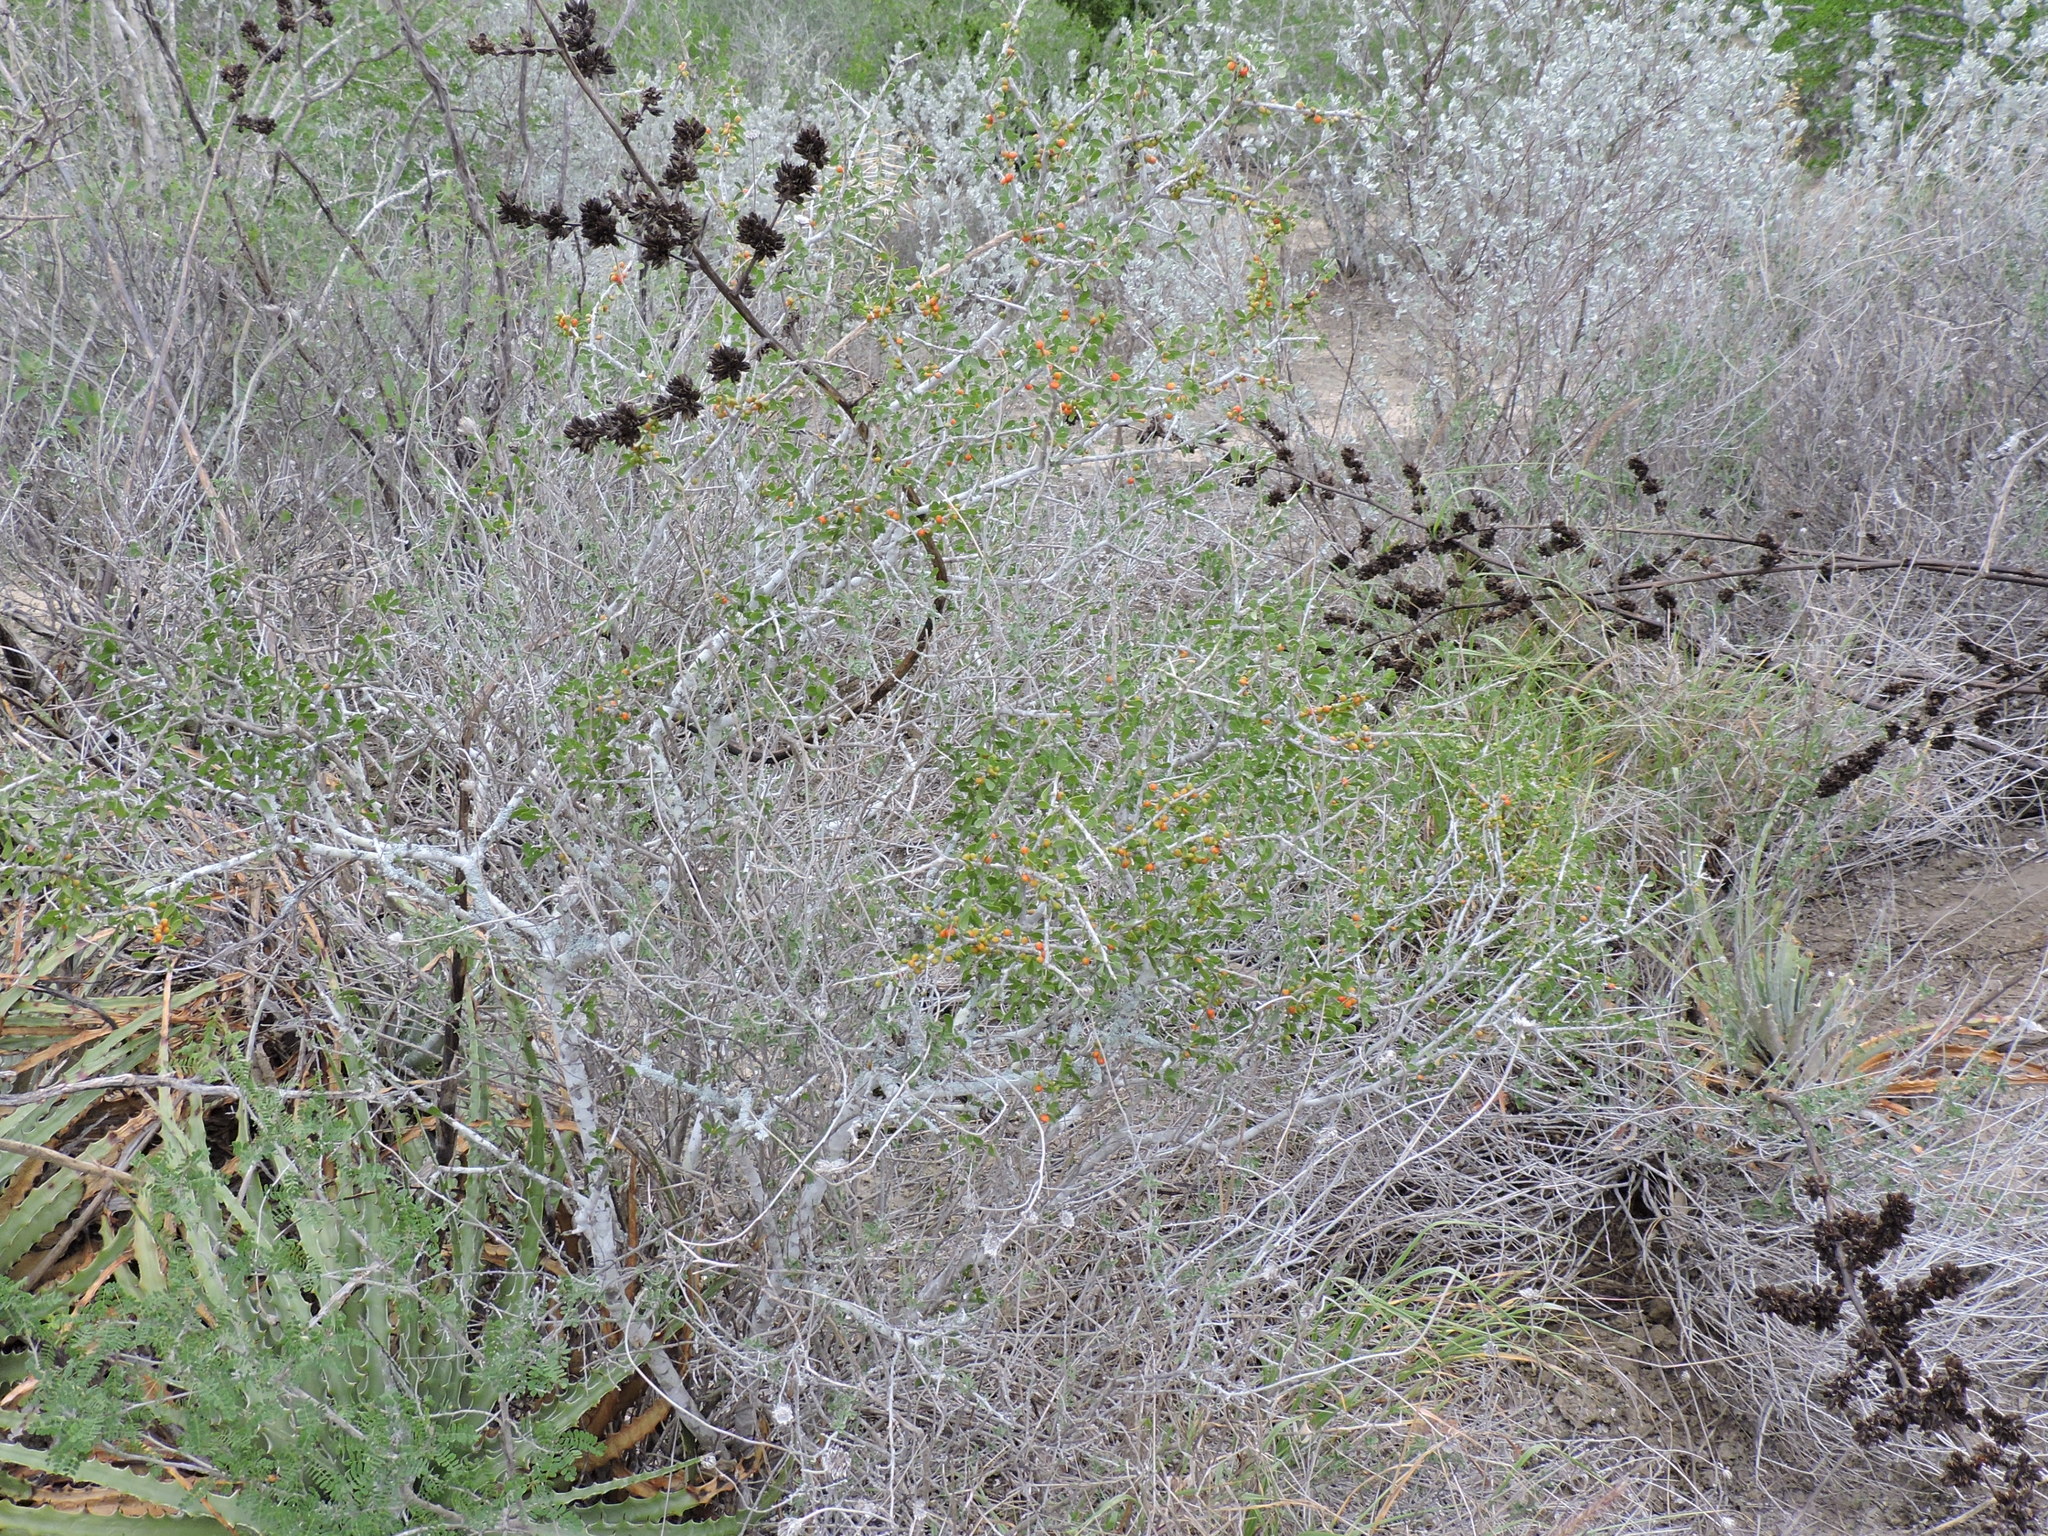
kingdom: Plantae
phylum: Tracheophyta
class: Magnoliopsida
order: Celastrales
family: Celastraceae
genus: Schaefferia
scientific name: Schaefferia cuneifolia
